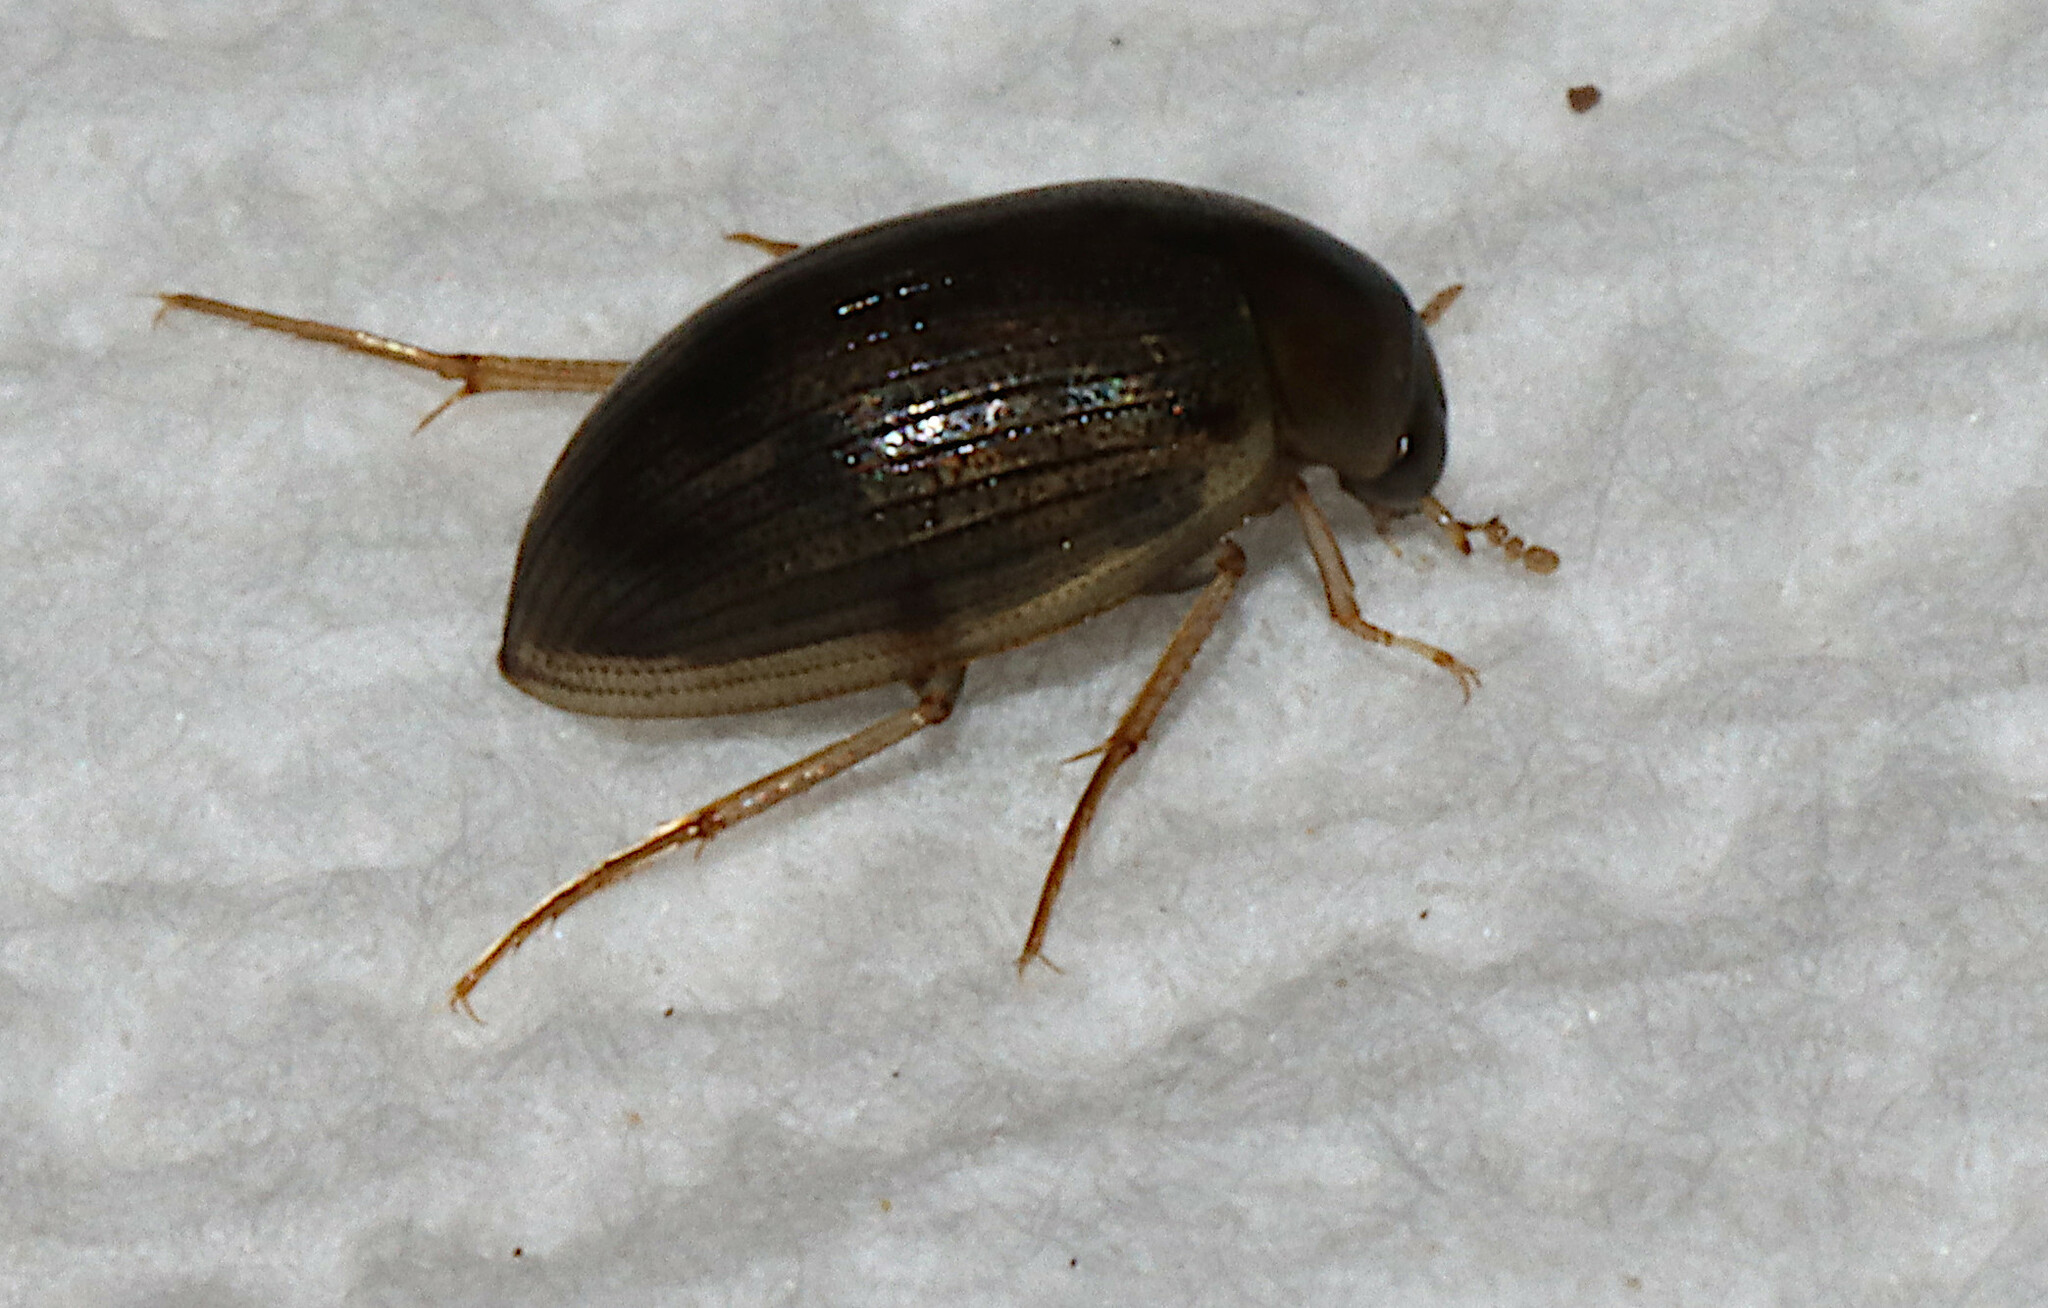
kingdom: Animalia
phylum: Arthropoda
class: Insecta
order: Coleoptera
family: Hydrophilidae
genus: Berosus
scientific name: Berosus
